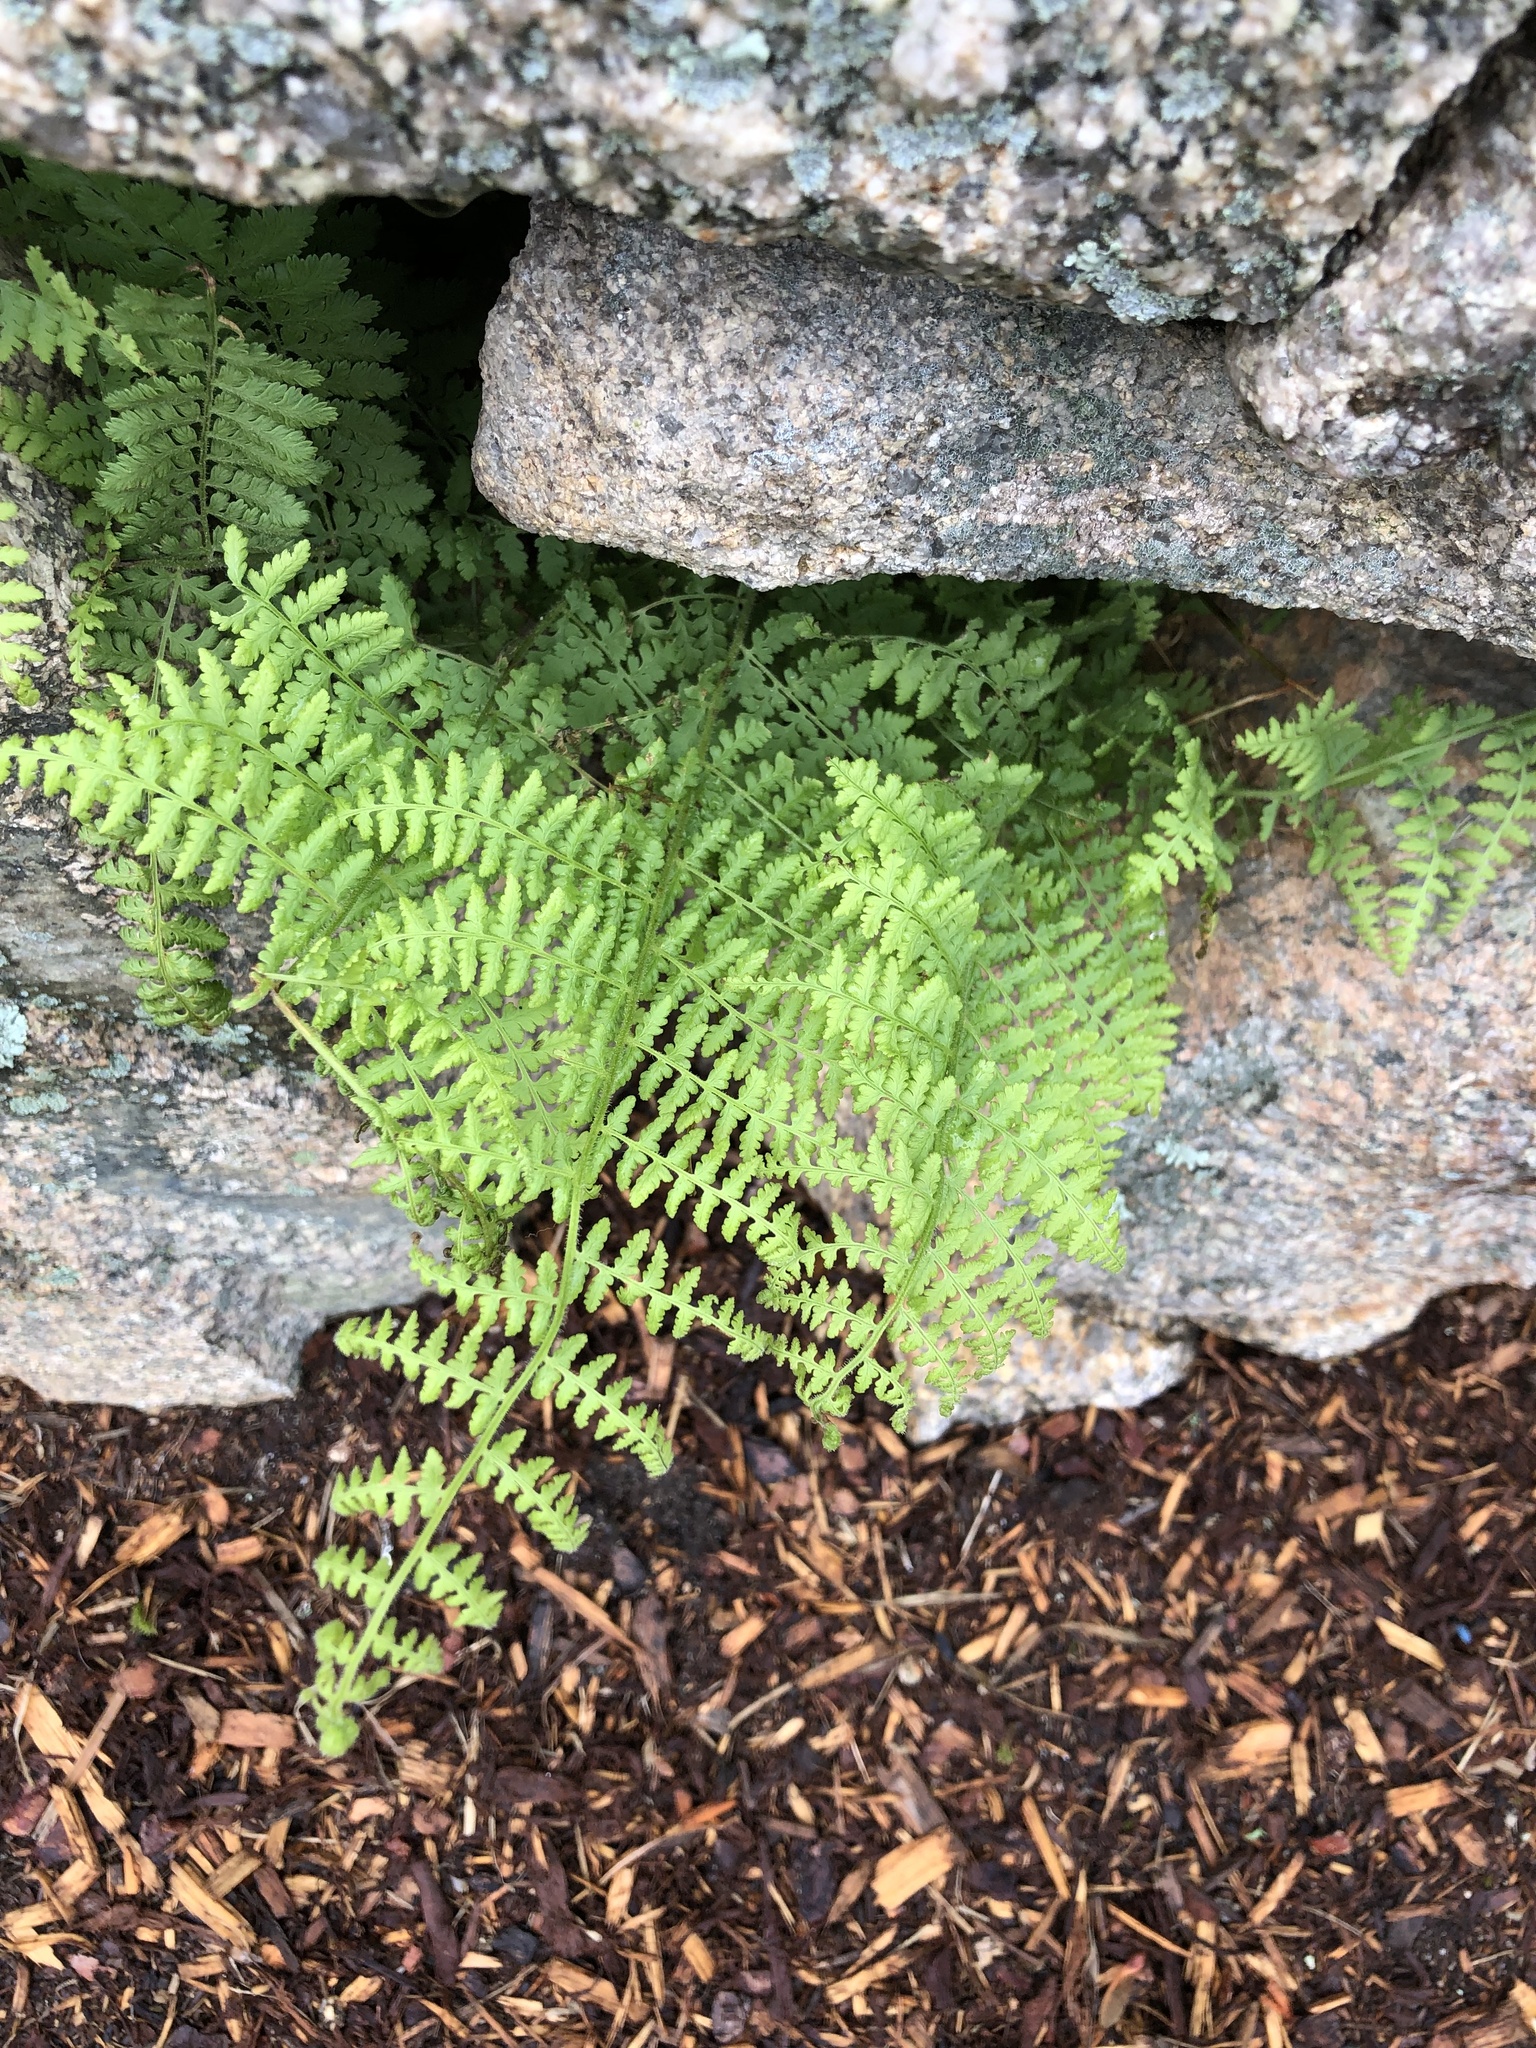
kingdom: Plantae
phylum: Tracheophyta
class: Polypodiopsida
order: Polypodiales
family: Dennstaedtiaceae
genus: Sitobolium
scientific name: Sitobolium punctilobum
